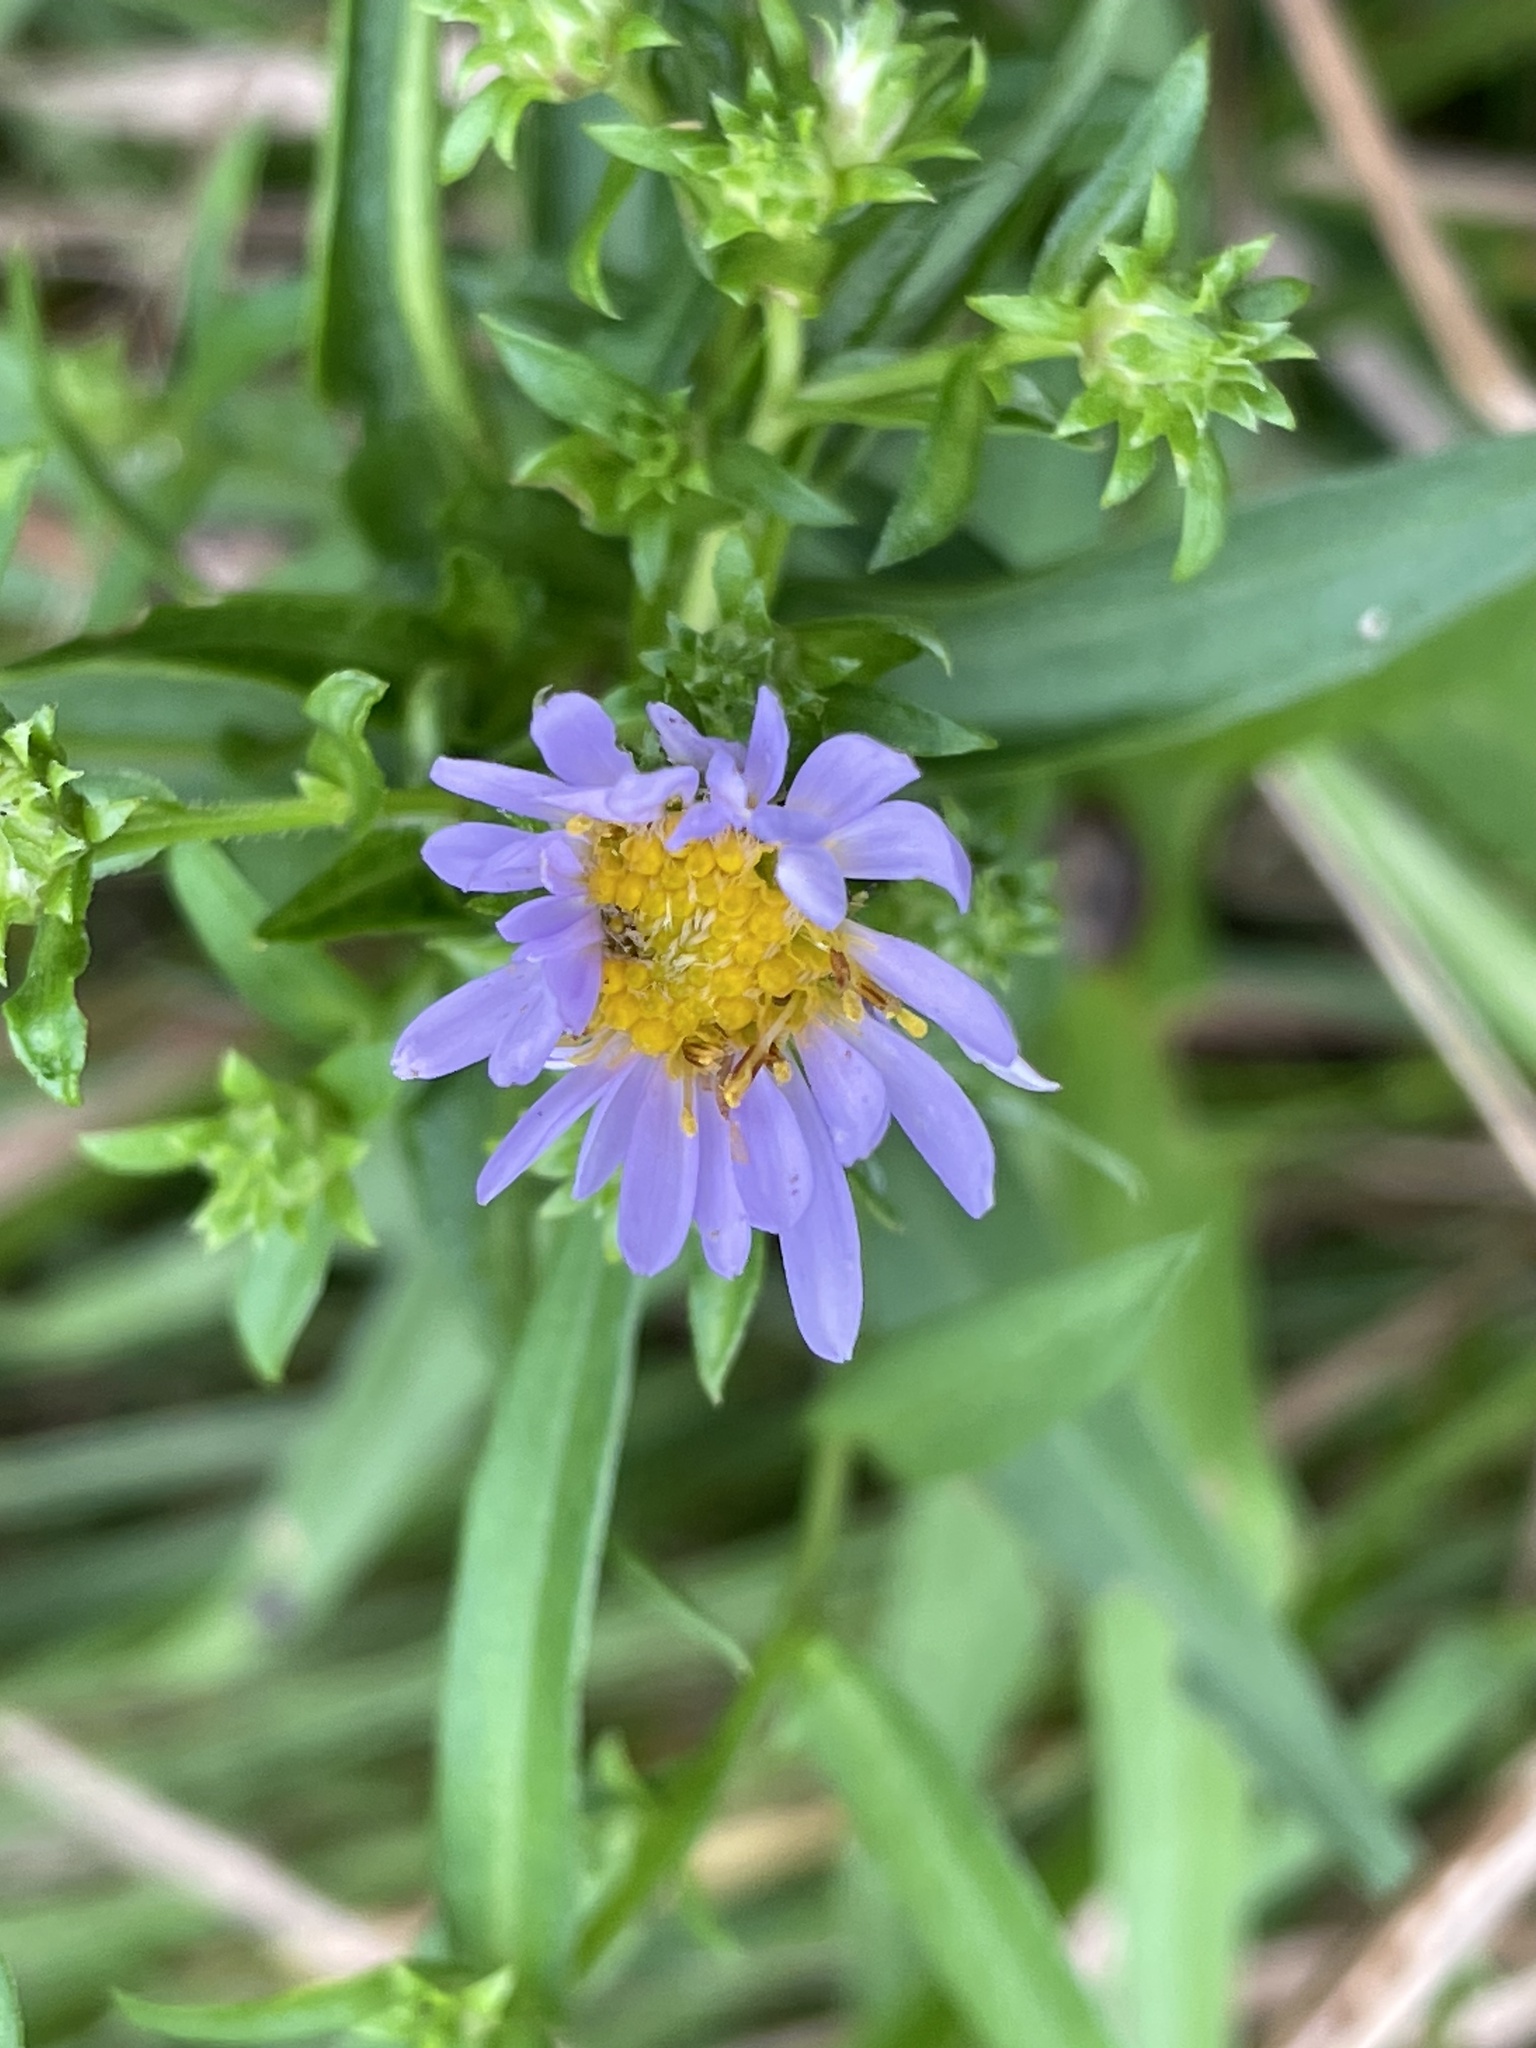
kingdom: Plantae
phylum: Tracheophyta
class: Magnoliopsida
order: Asterales
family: Asteraceae
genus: Symphyotrichum
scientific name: Symphyotrichum novi-belgii
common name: Michaelmas daisy
